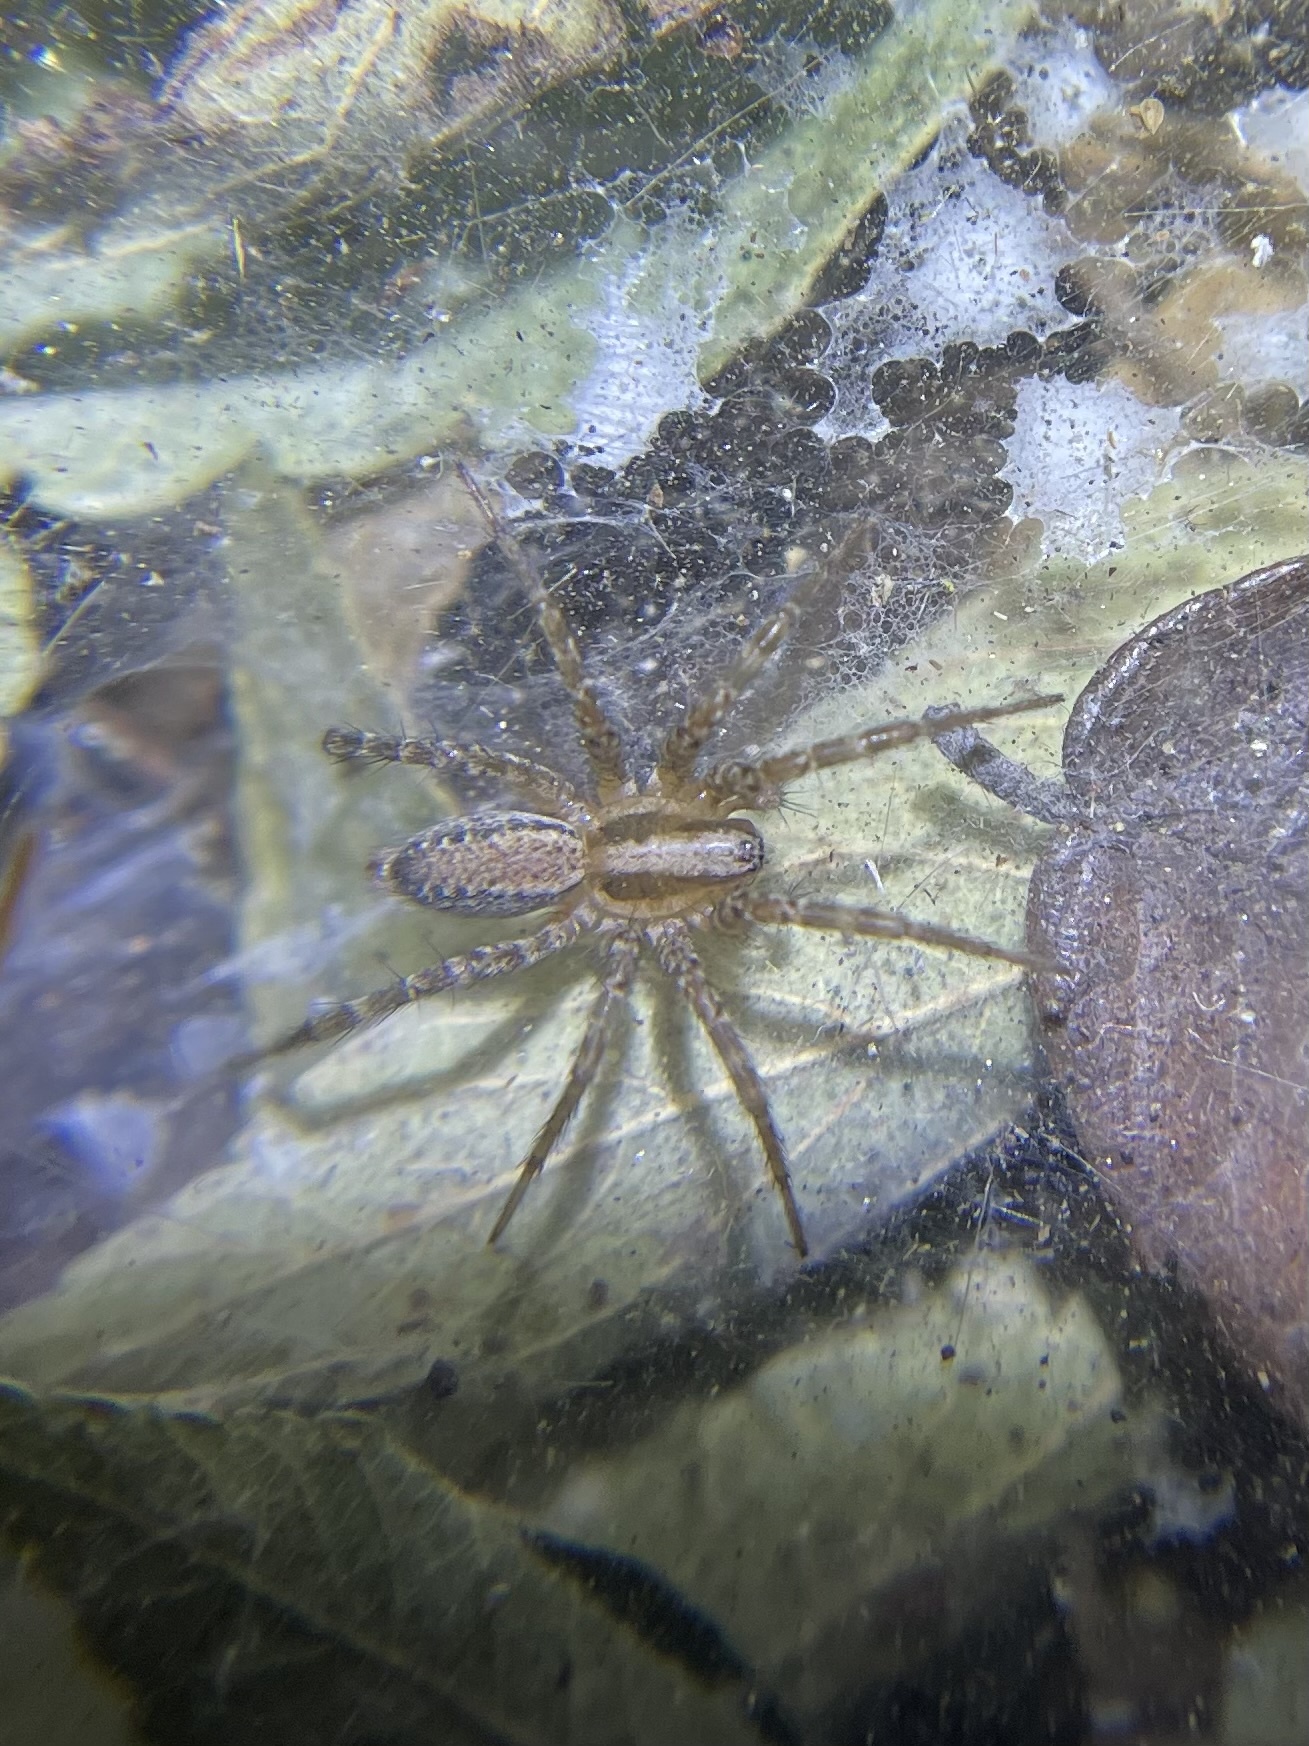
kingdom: Animalia
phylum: Arthropoda
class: Arachnida
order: Araneae
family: Agelenidae
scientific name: Agelenidae
